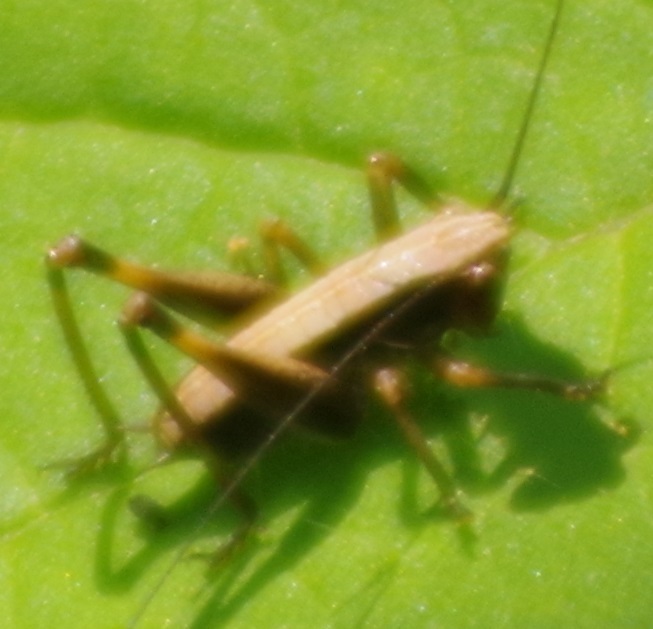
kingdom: Animalia
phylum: Arthropoda
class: Insecta
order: Orthoptera
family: Tettigoniidae
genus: Pholidoptera
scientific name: Pholidoptera griseoaptera
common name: Dark bush-cricket
